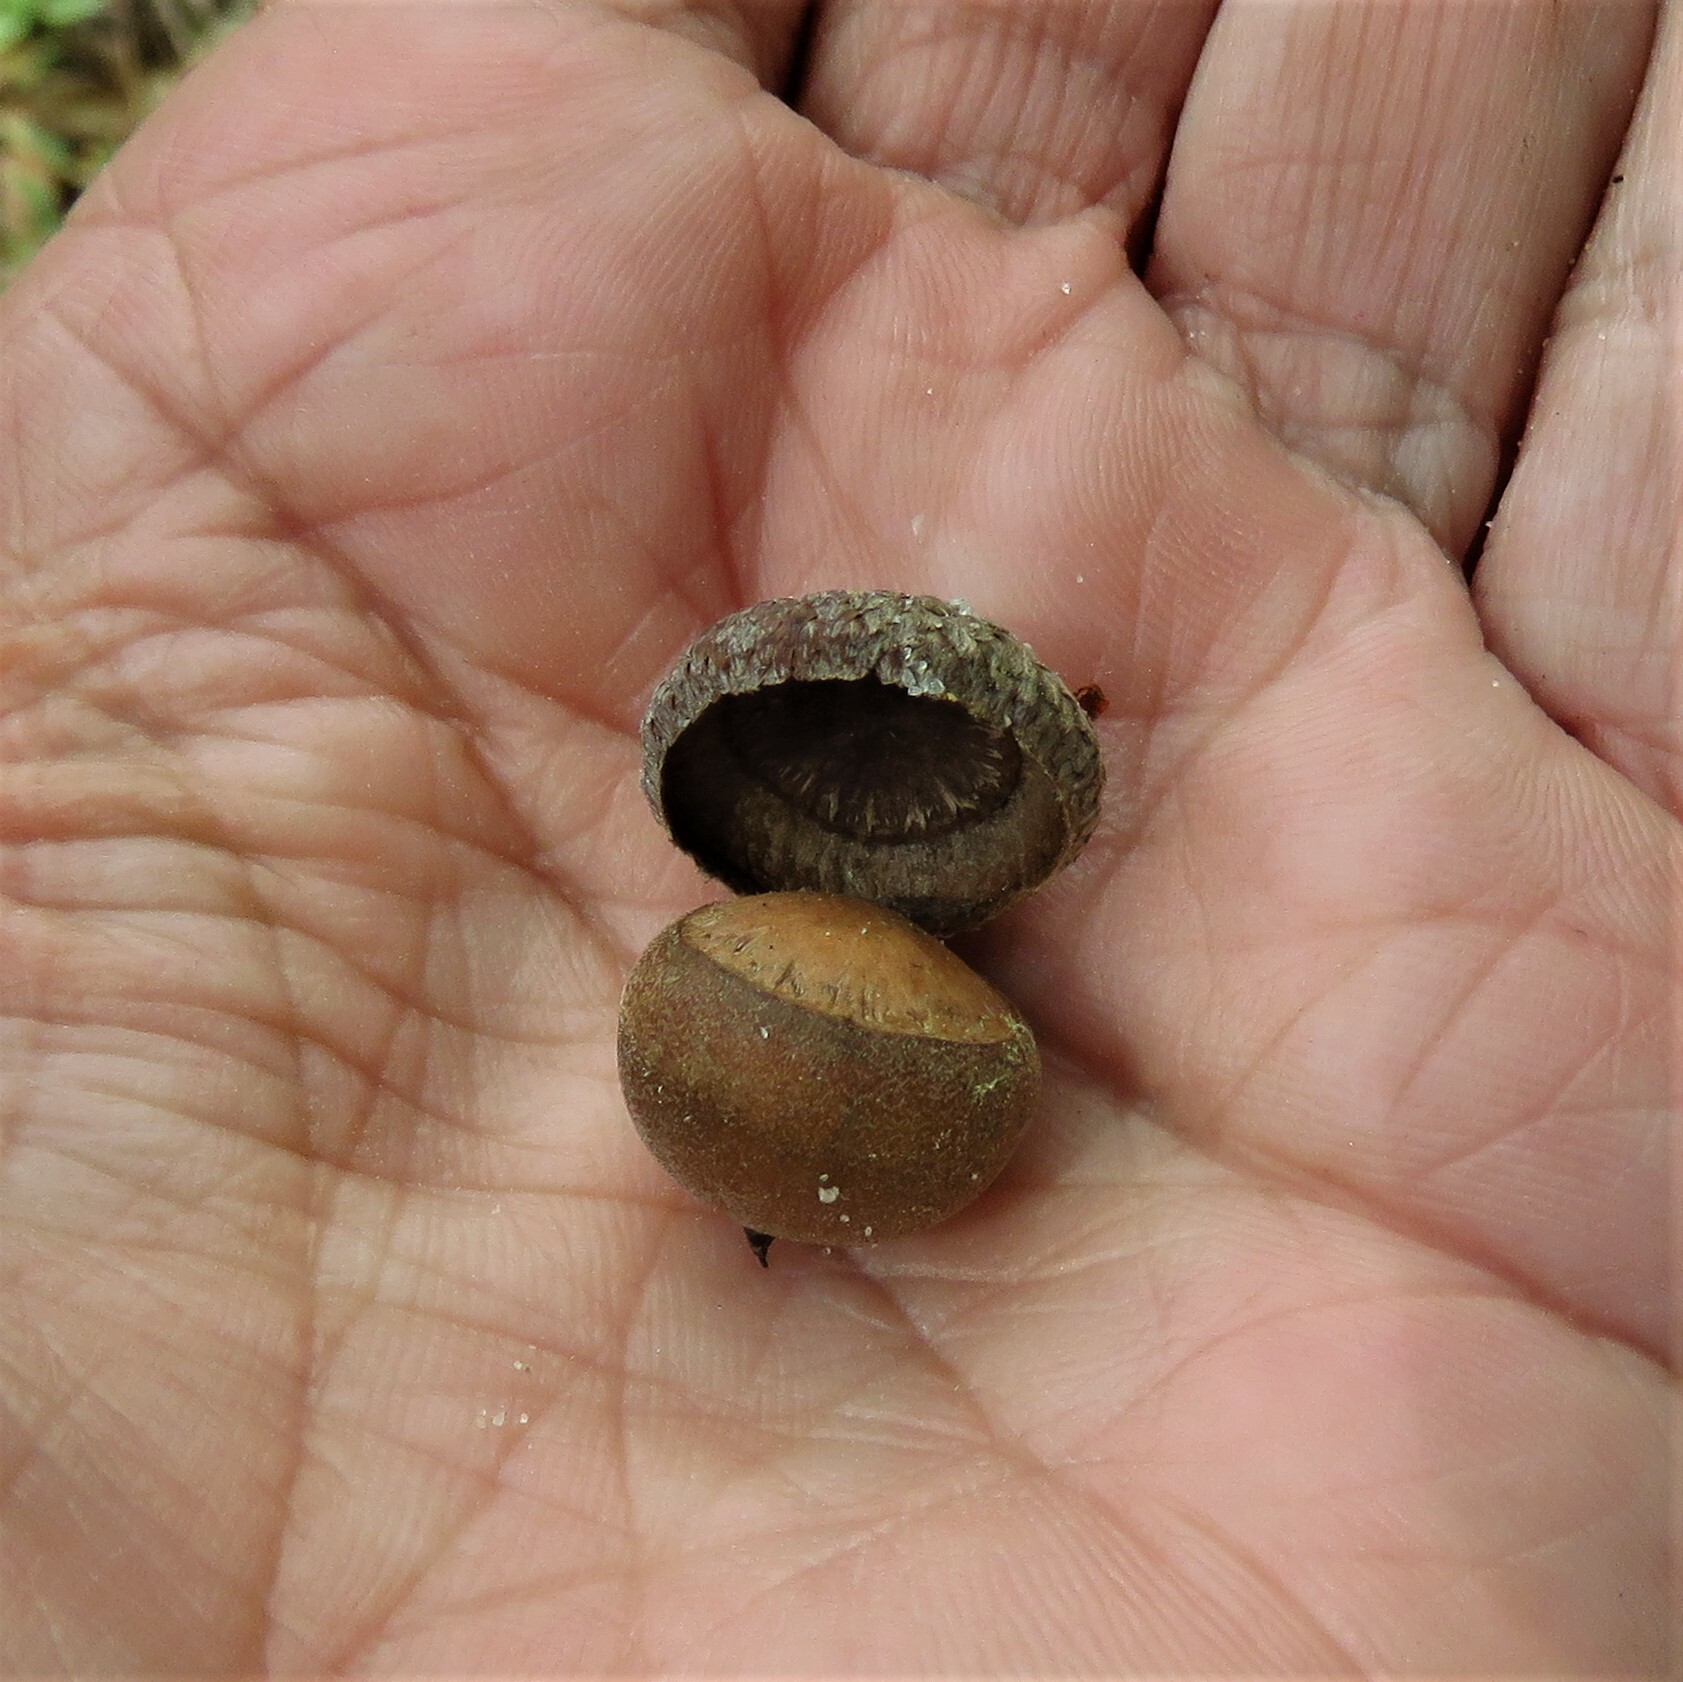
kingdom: Plantae
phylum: Tracheophyta
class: Magnoliopsida
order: Fagales
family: Fagaceae
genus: Quercus
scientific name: Quercus nigra
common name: Water oak
